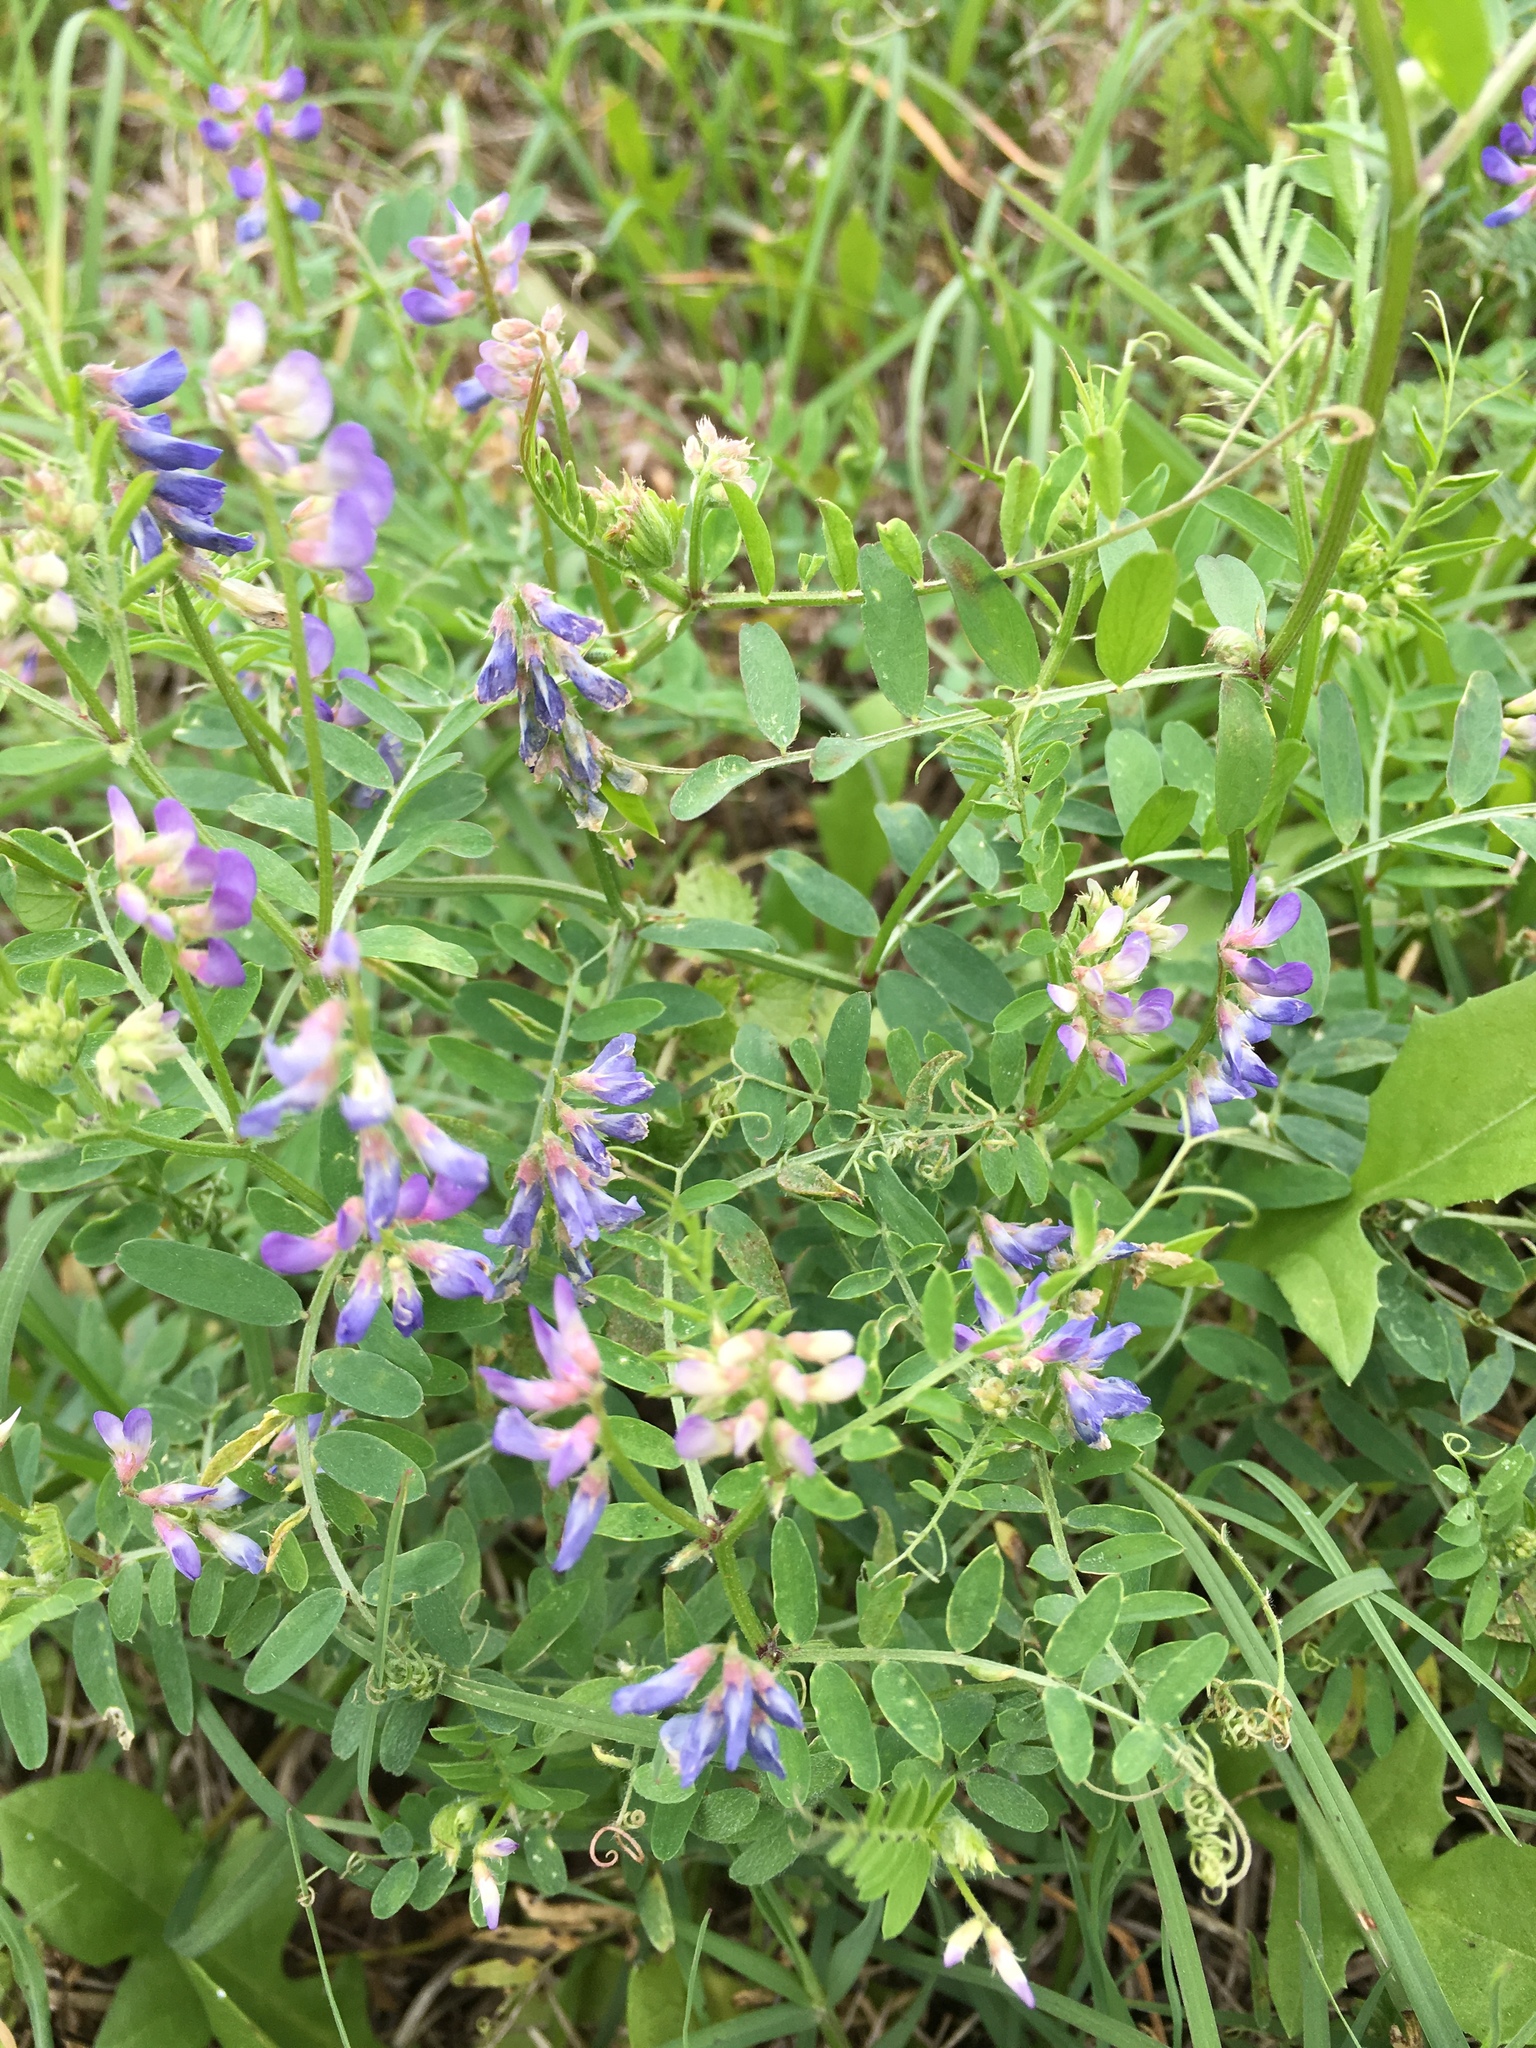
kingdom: Plantae
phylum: Tracheophyta
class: Magnoliopsida
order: Fabales
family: Fabaceae
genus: Vicia
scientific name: Vicia ludoviciana
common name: Louisiana vetch
